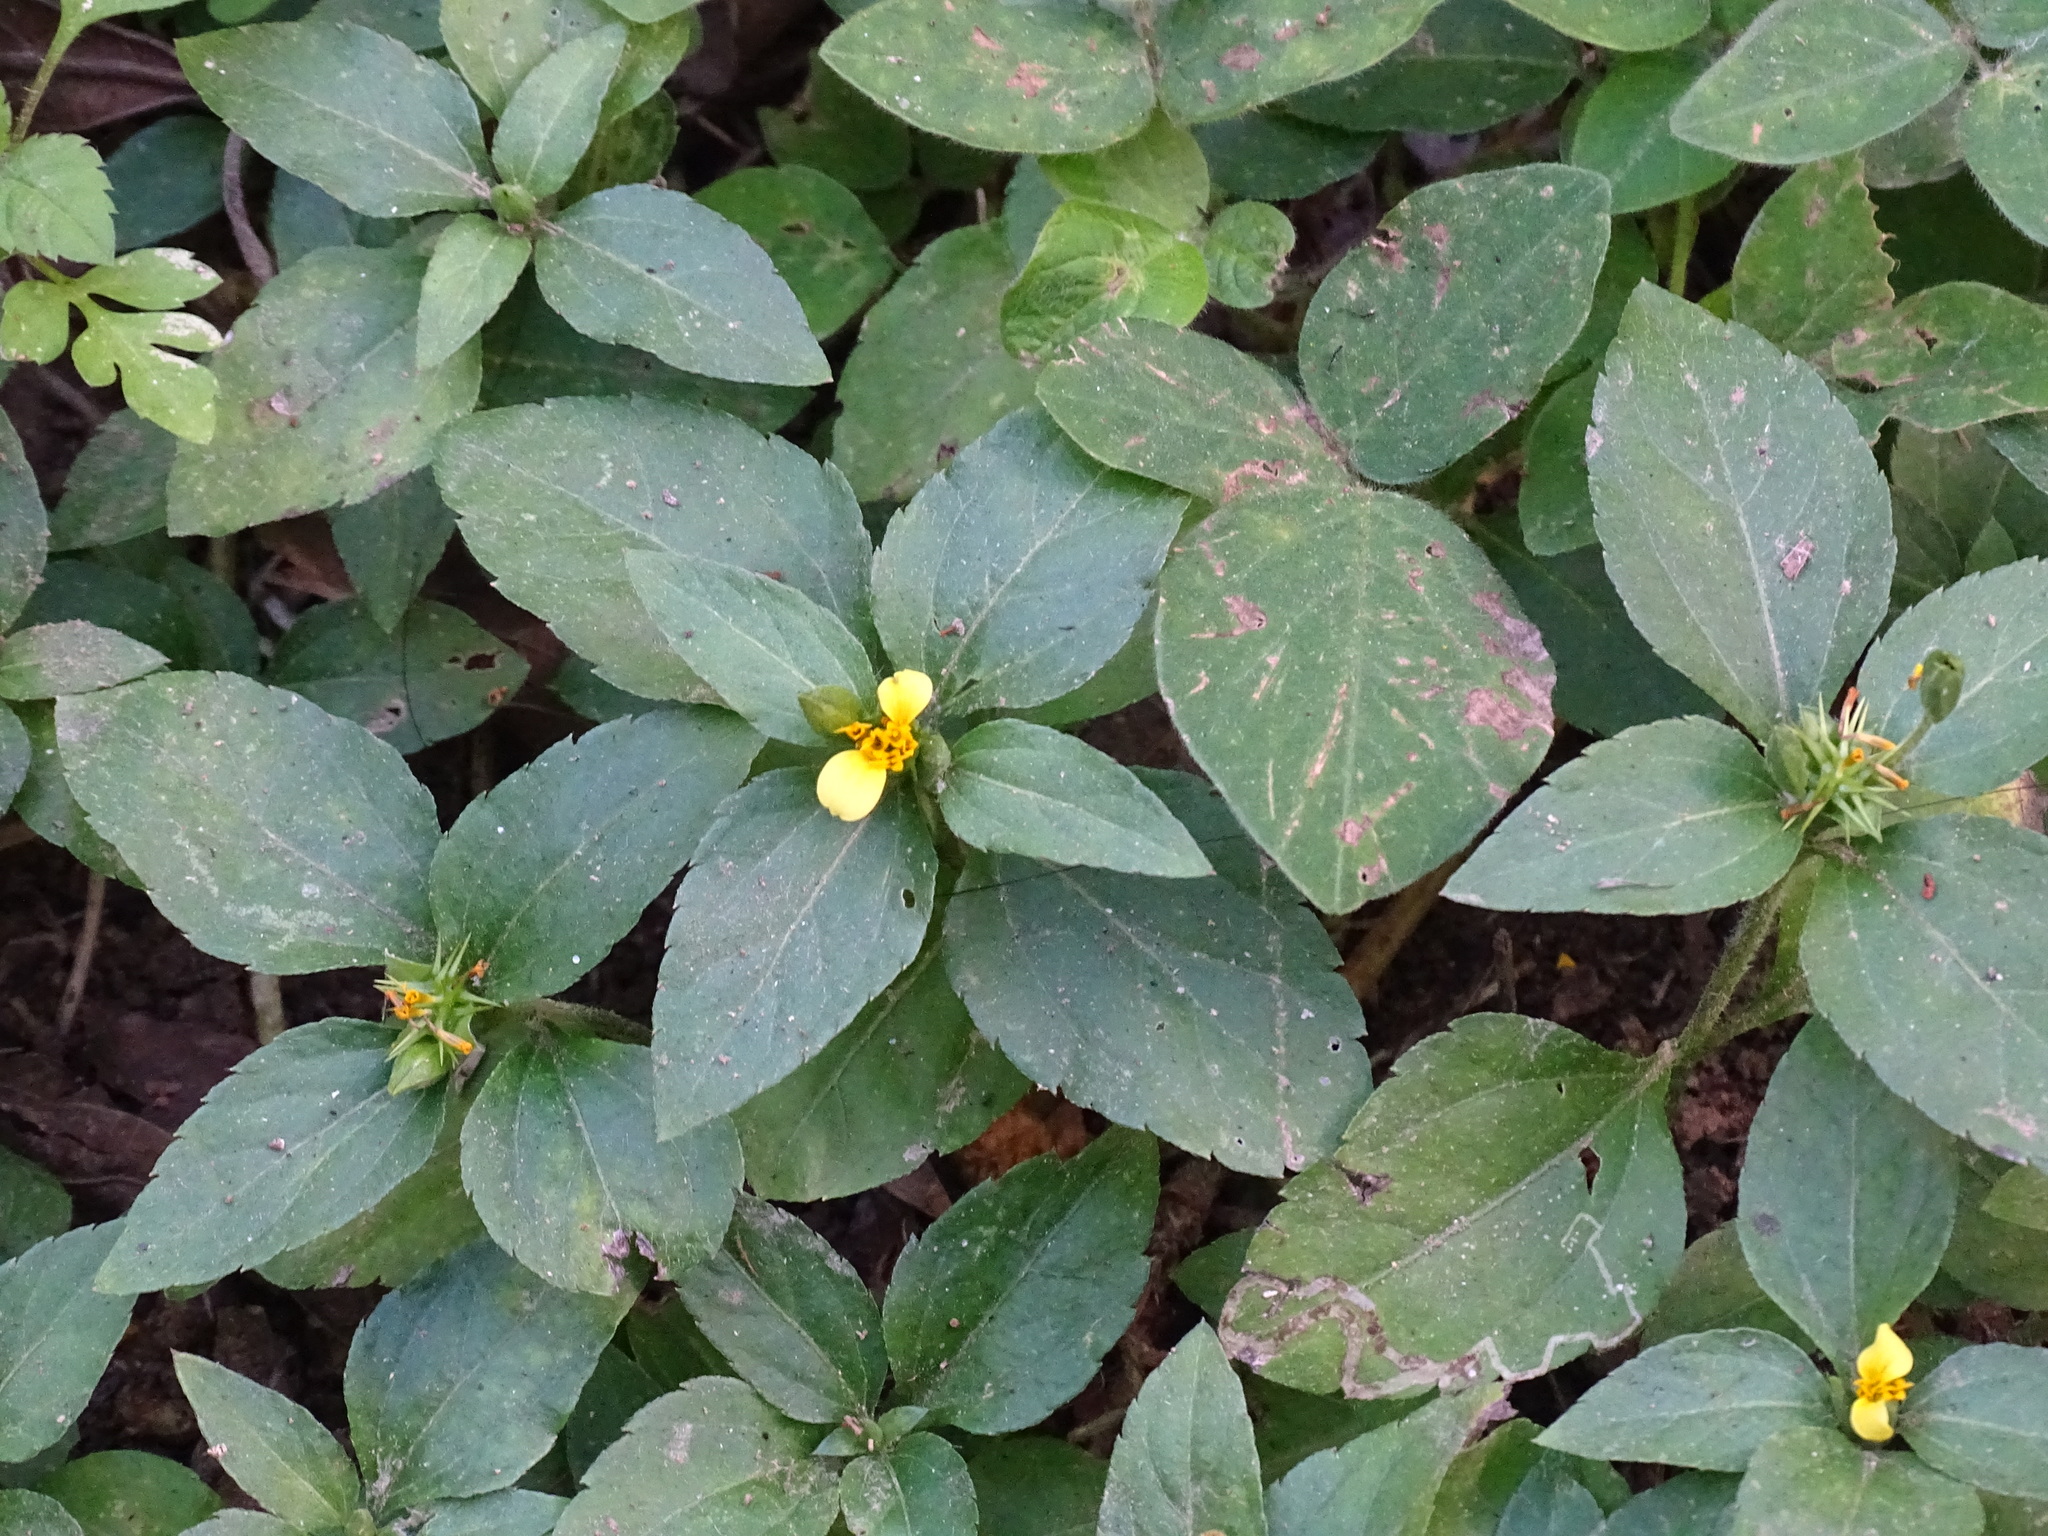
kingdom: Plantae
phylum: Tracheophyta
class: Magnoliopsida
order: Asterales
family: Asteraceae
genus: Calyptocarpus
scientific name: Calyptocarpus vialis
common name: Straggler daisy
